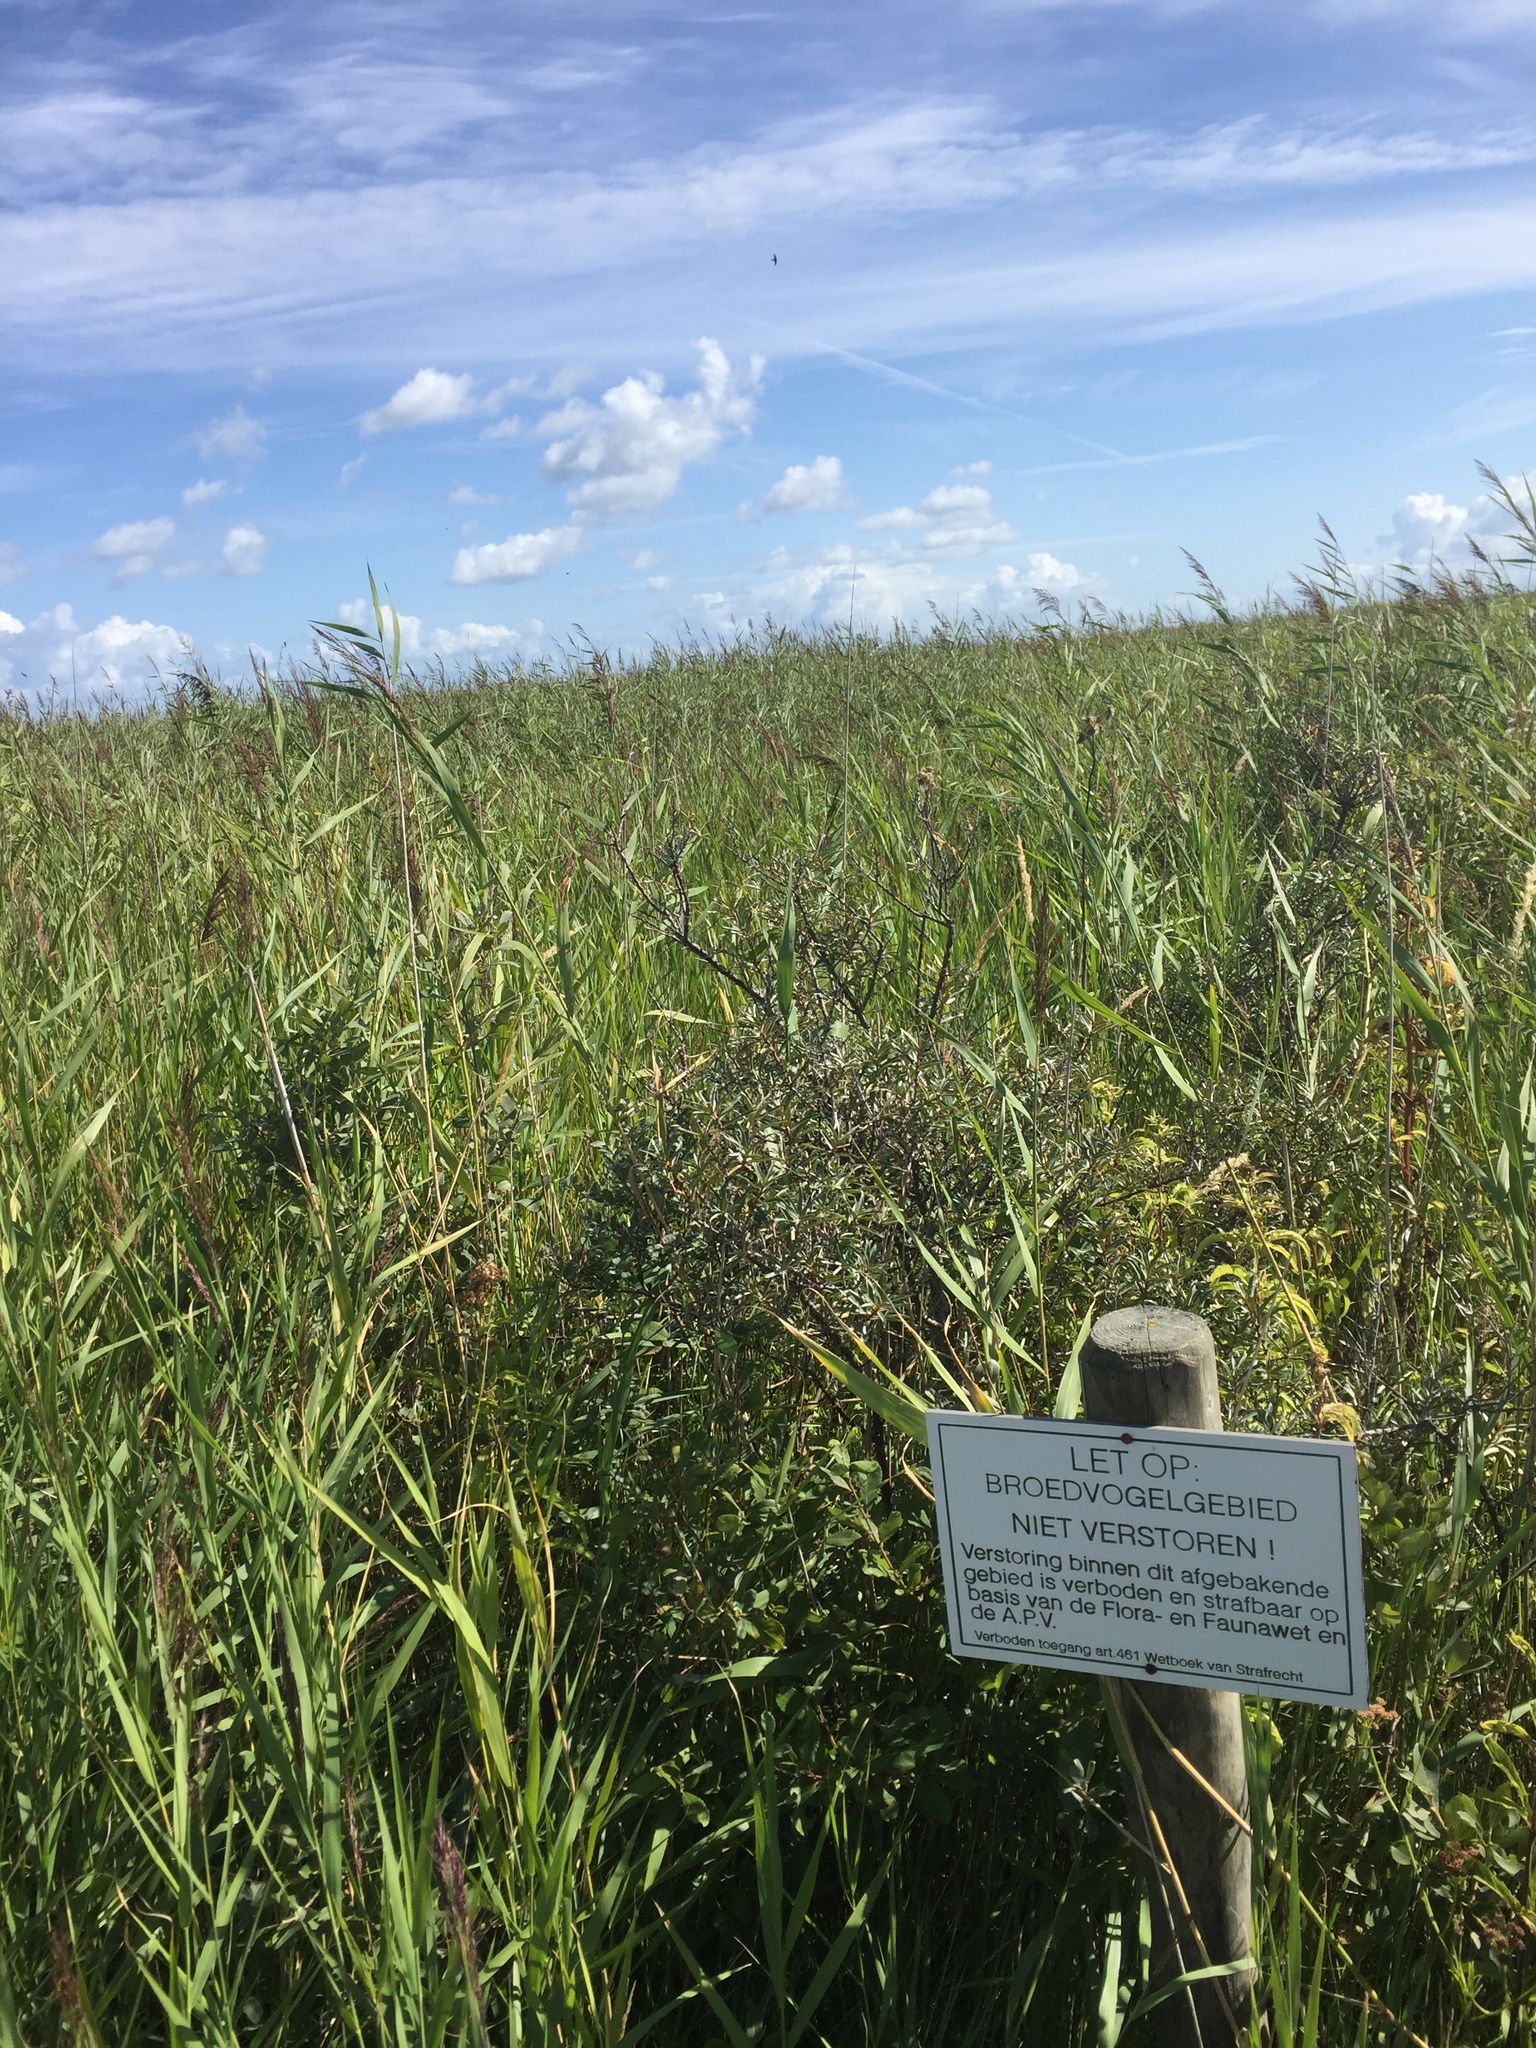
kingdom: Plantae
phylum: Tracheophyta
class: Liliopsida
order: Poales
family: Poaceae
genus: Phragmites
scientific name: Phragmites australis
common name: Common reed
